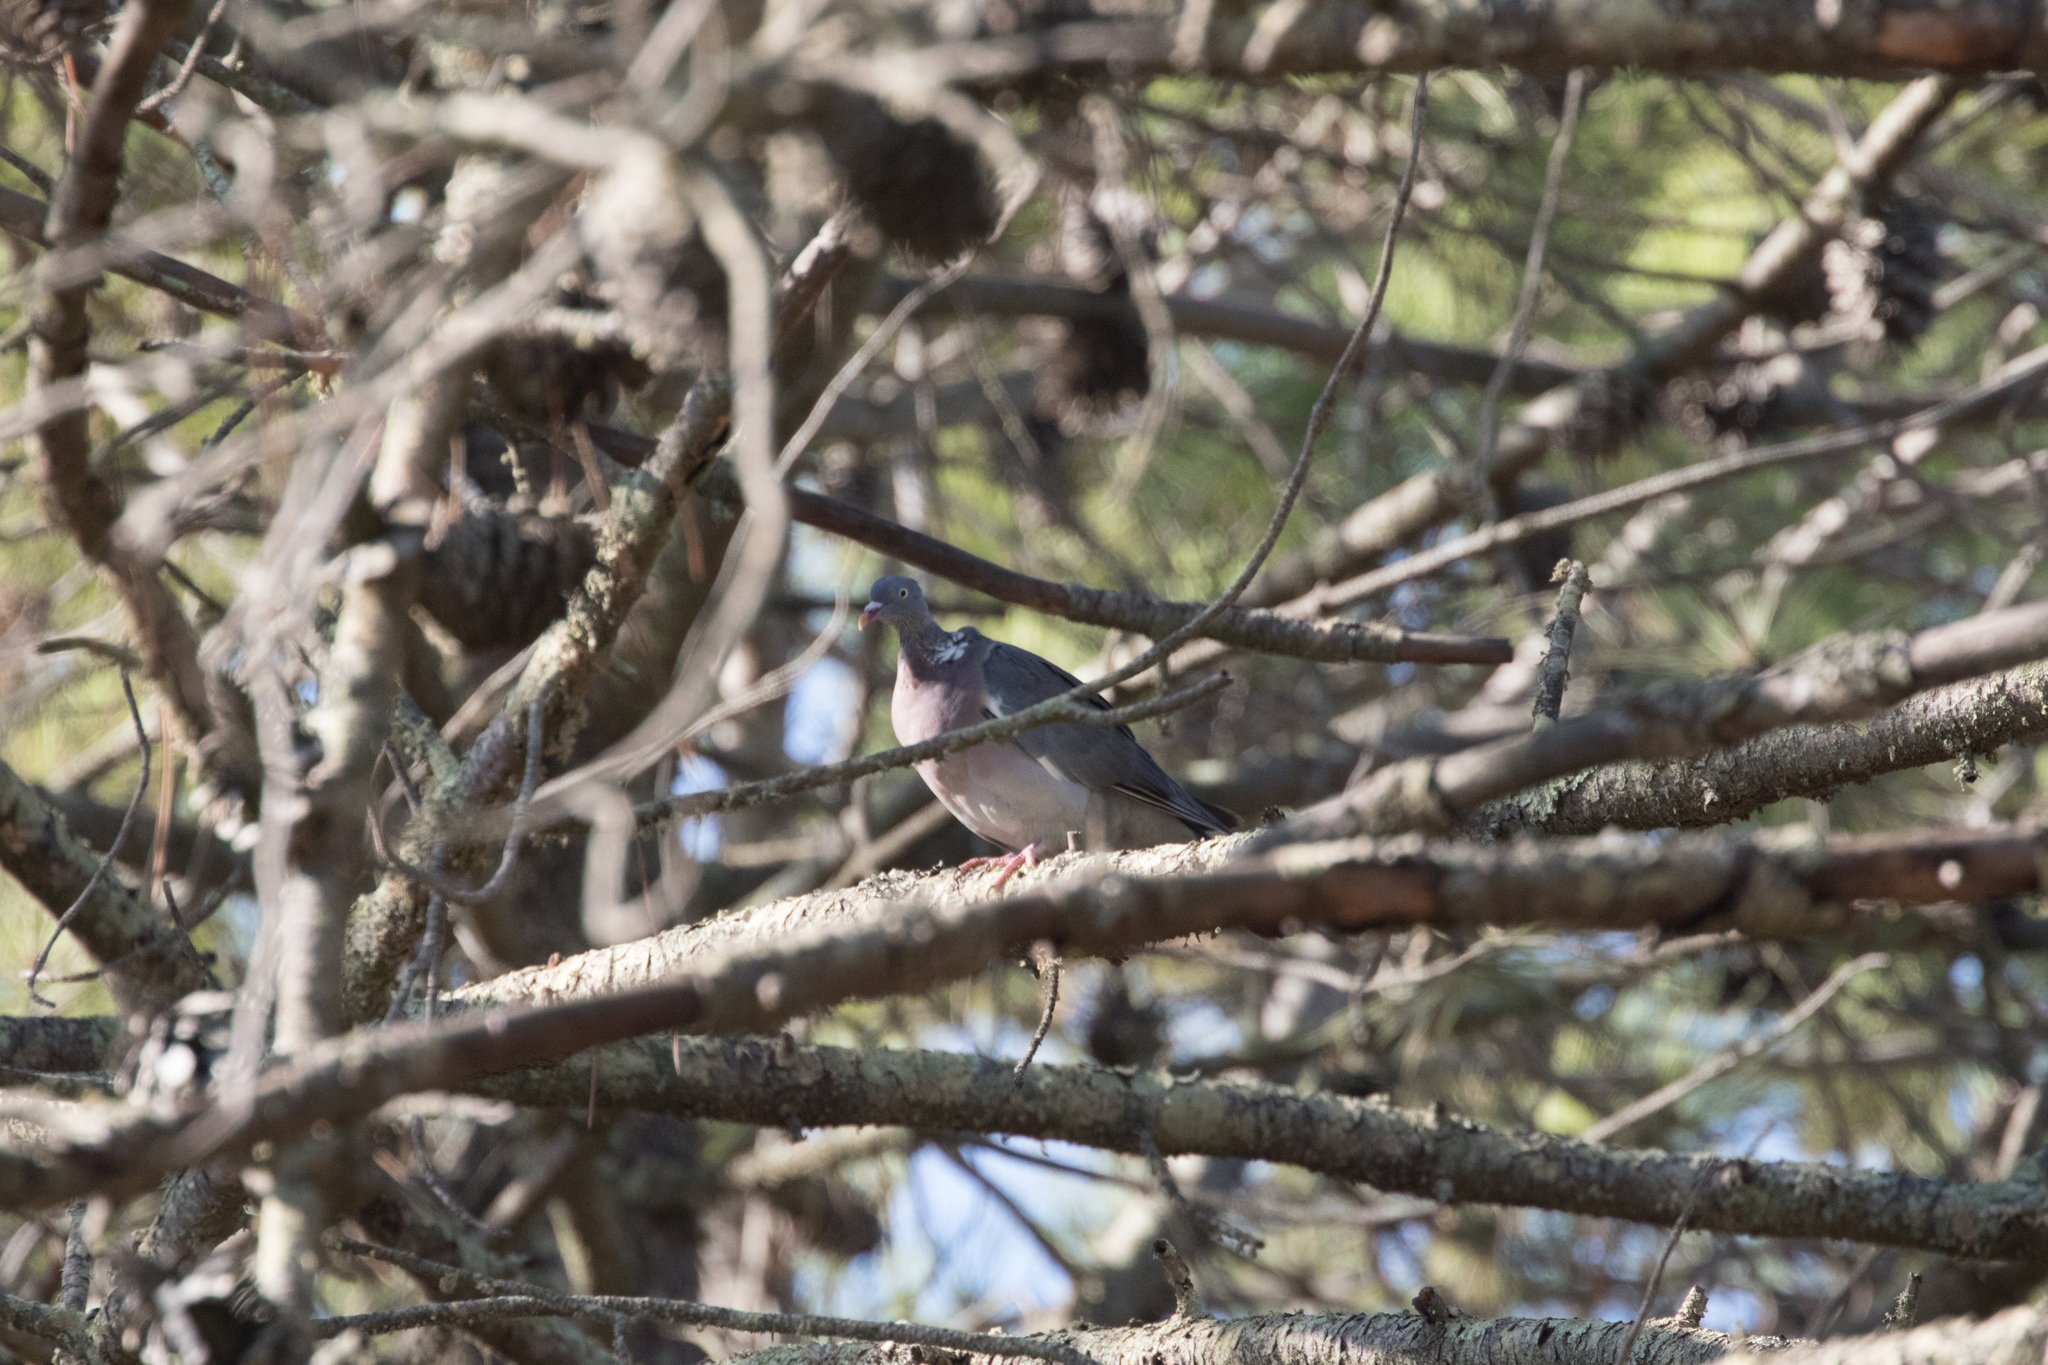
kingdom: Animalia
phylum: Chordata
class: Aves
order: Columbiformes
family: Columbidae
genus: Columba
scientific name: Columba palumbus
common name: Common wood pigeon
